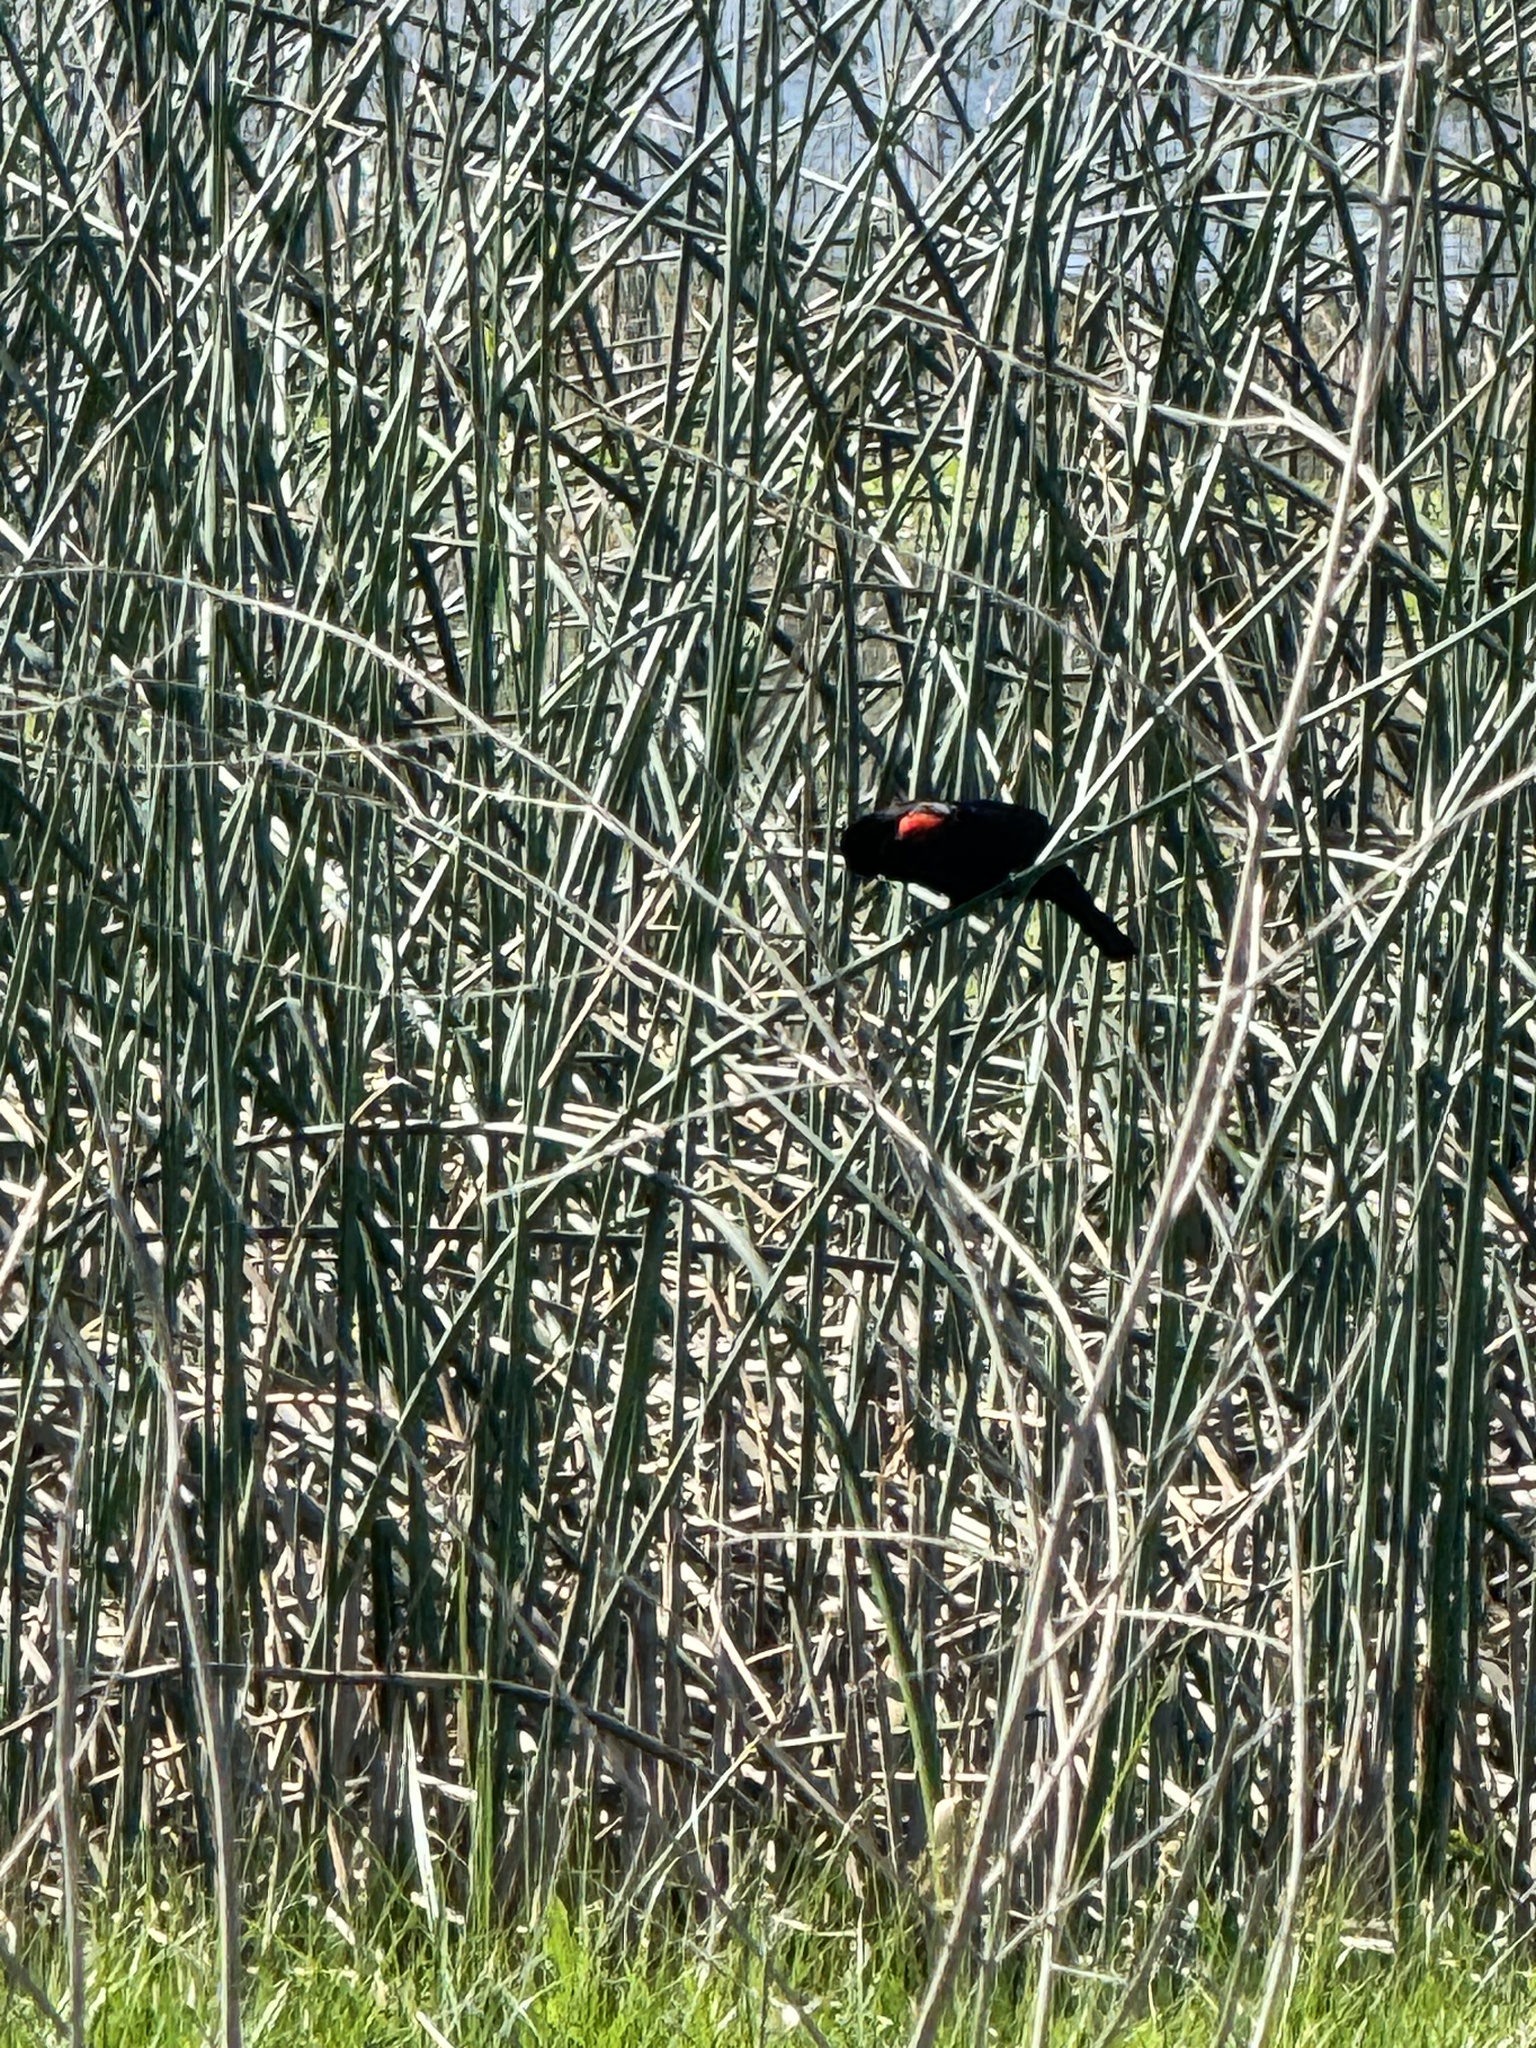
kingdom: Animalia
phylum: Chordata
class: Aves
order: Passeriformes
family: Icteridae
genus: Agelaius
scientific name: Agelaius phoeniceus
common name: Red-winged blackbird
